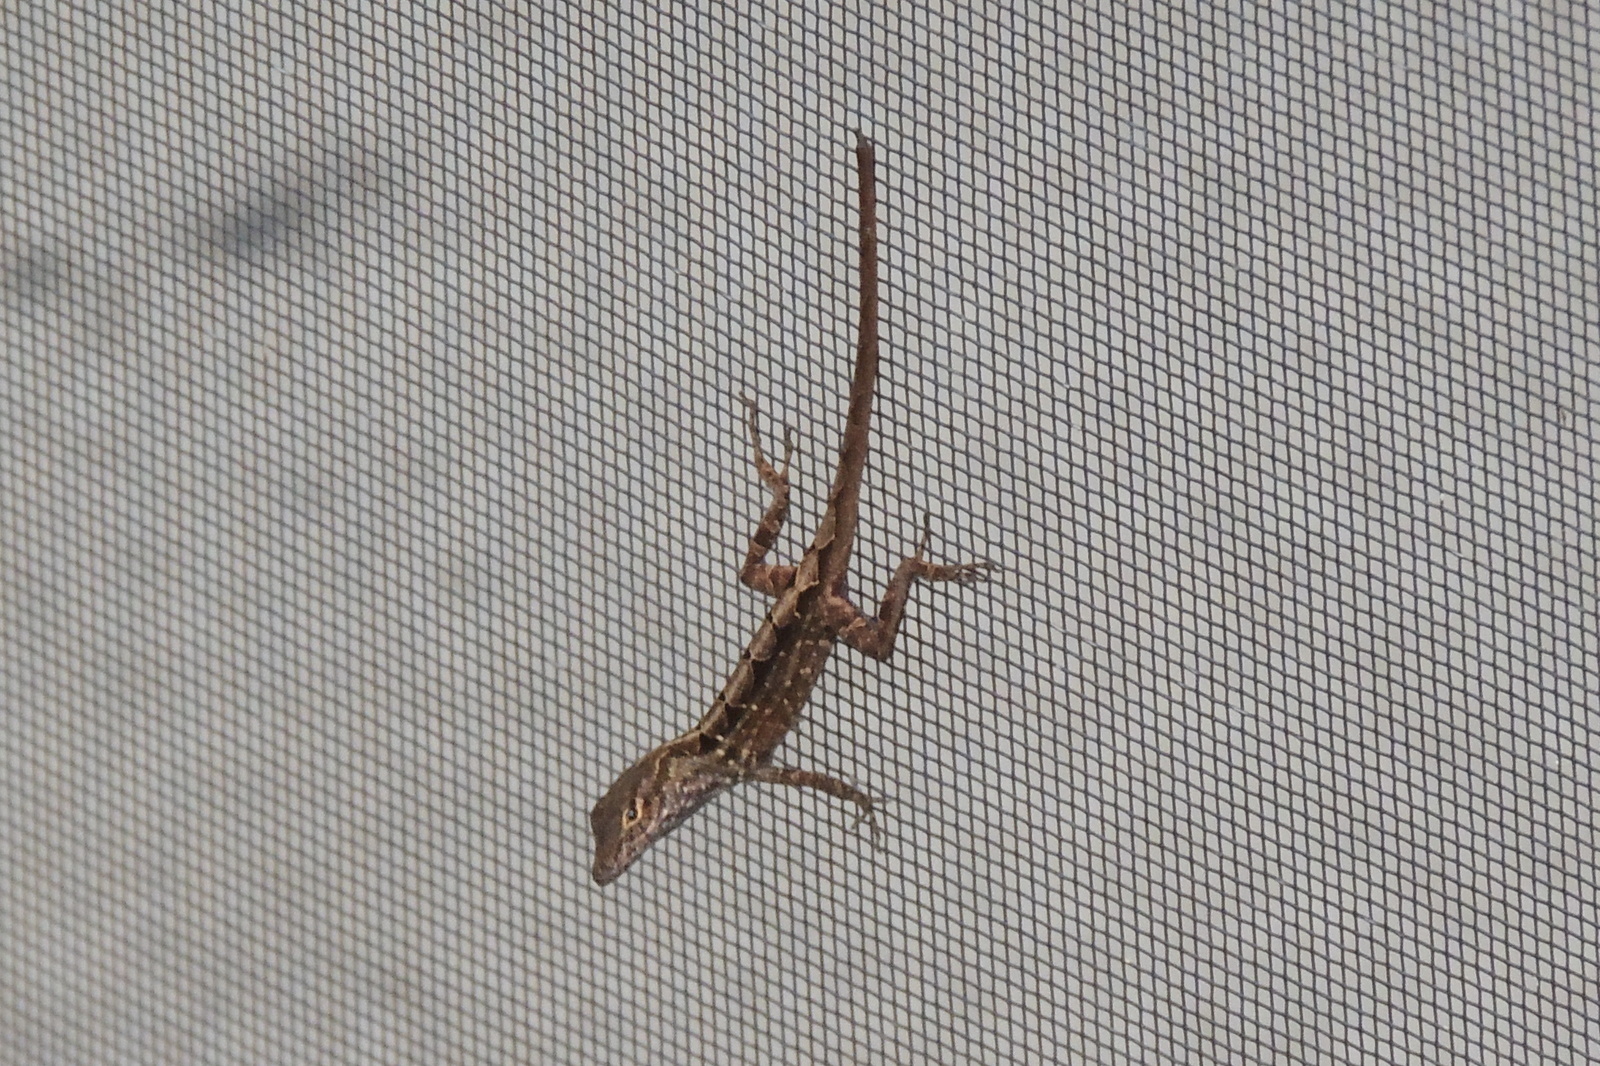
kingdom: Animalia
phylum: Chordata
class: Squamata
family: Dactyloidae
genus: Anolis
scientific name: Anolis sagrei
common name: Brown anole
